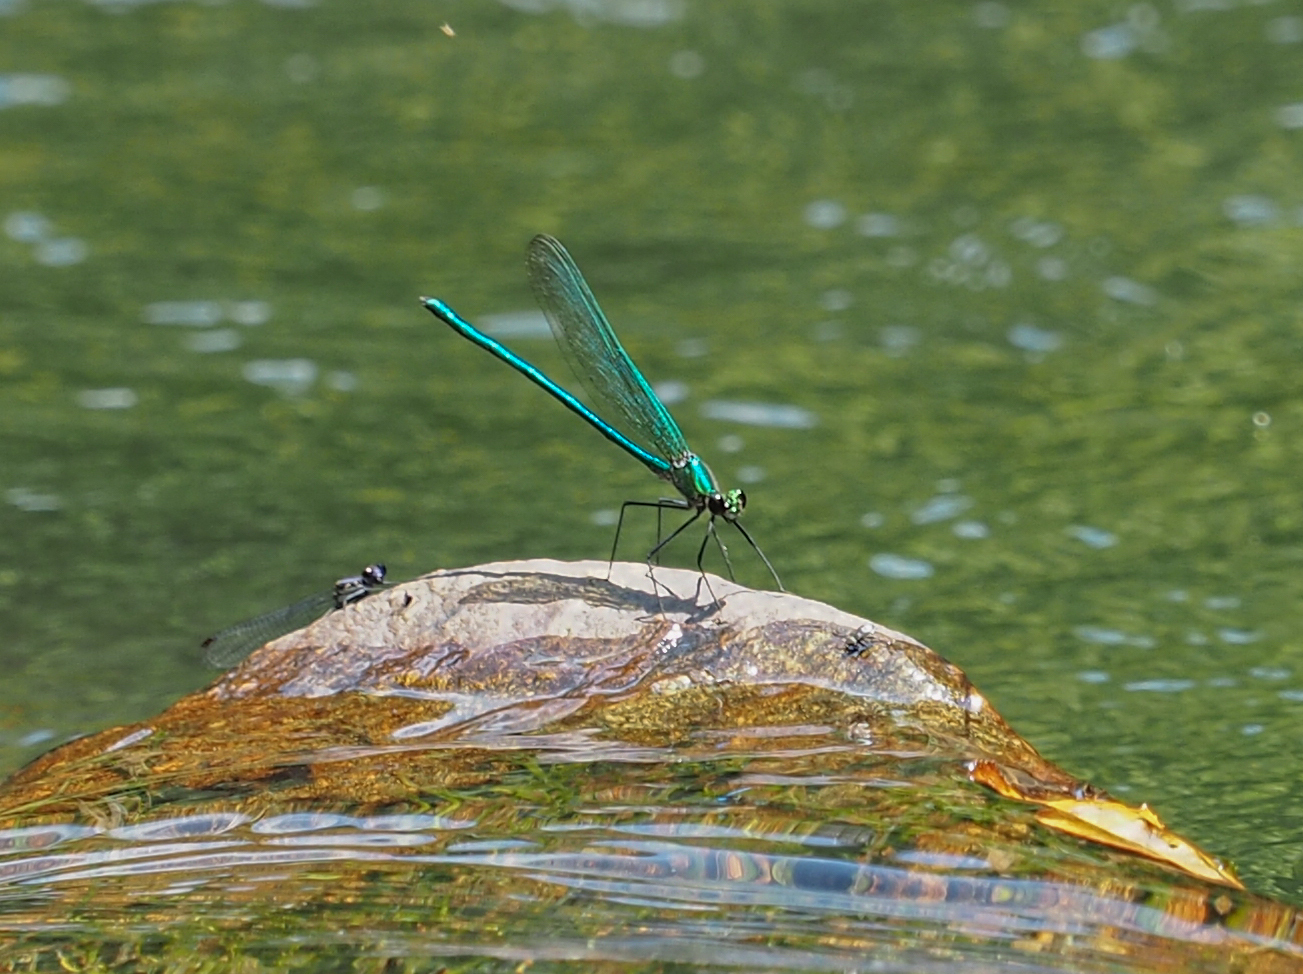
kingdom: Animalia
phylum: Arthropoda
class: Insecta
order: Odonata
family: Calopterygidae
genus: Calopteryx
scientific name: Calopteryx angustipennis
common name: Appalachian jewelwing
